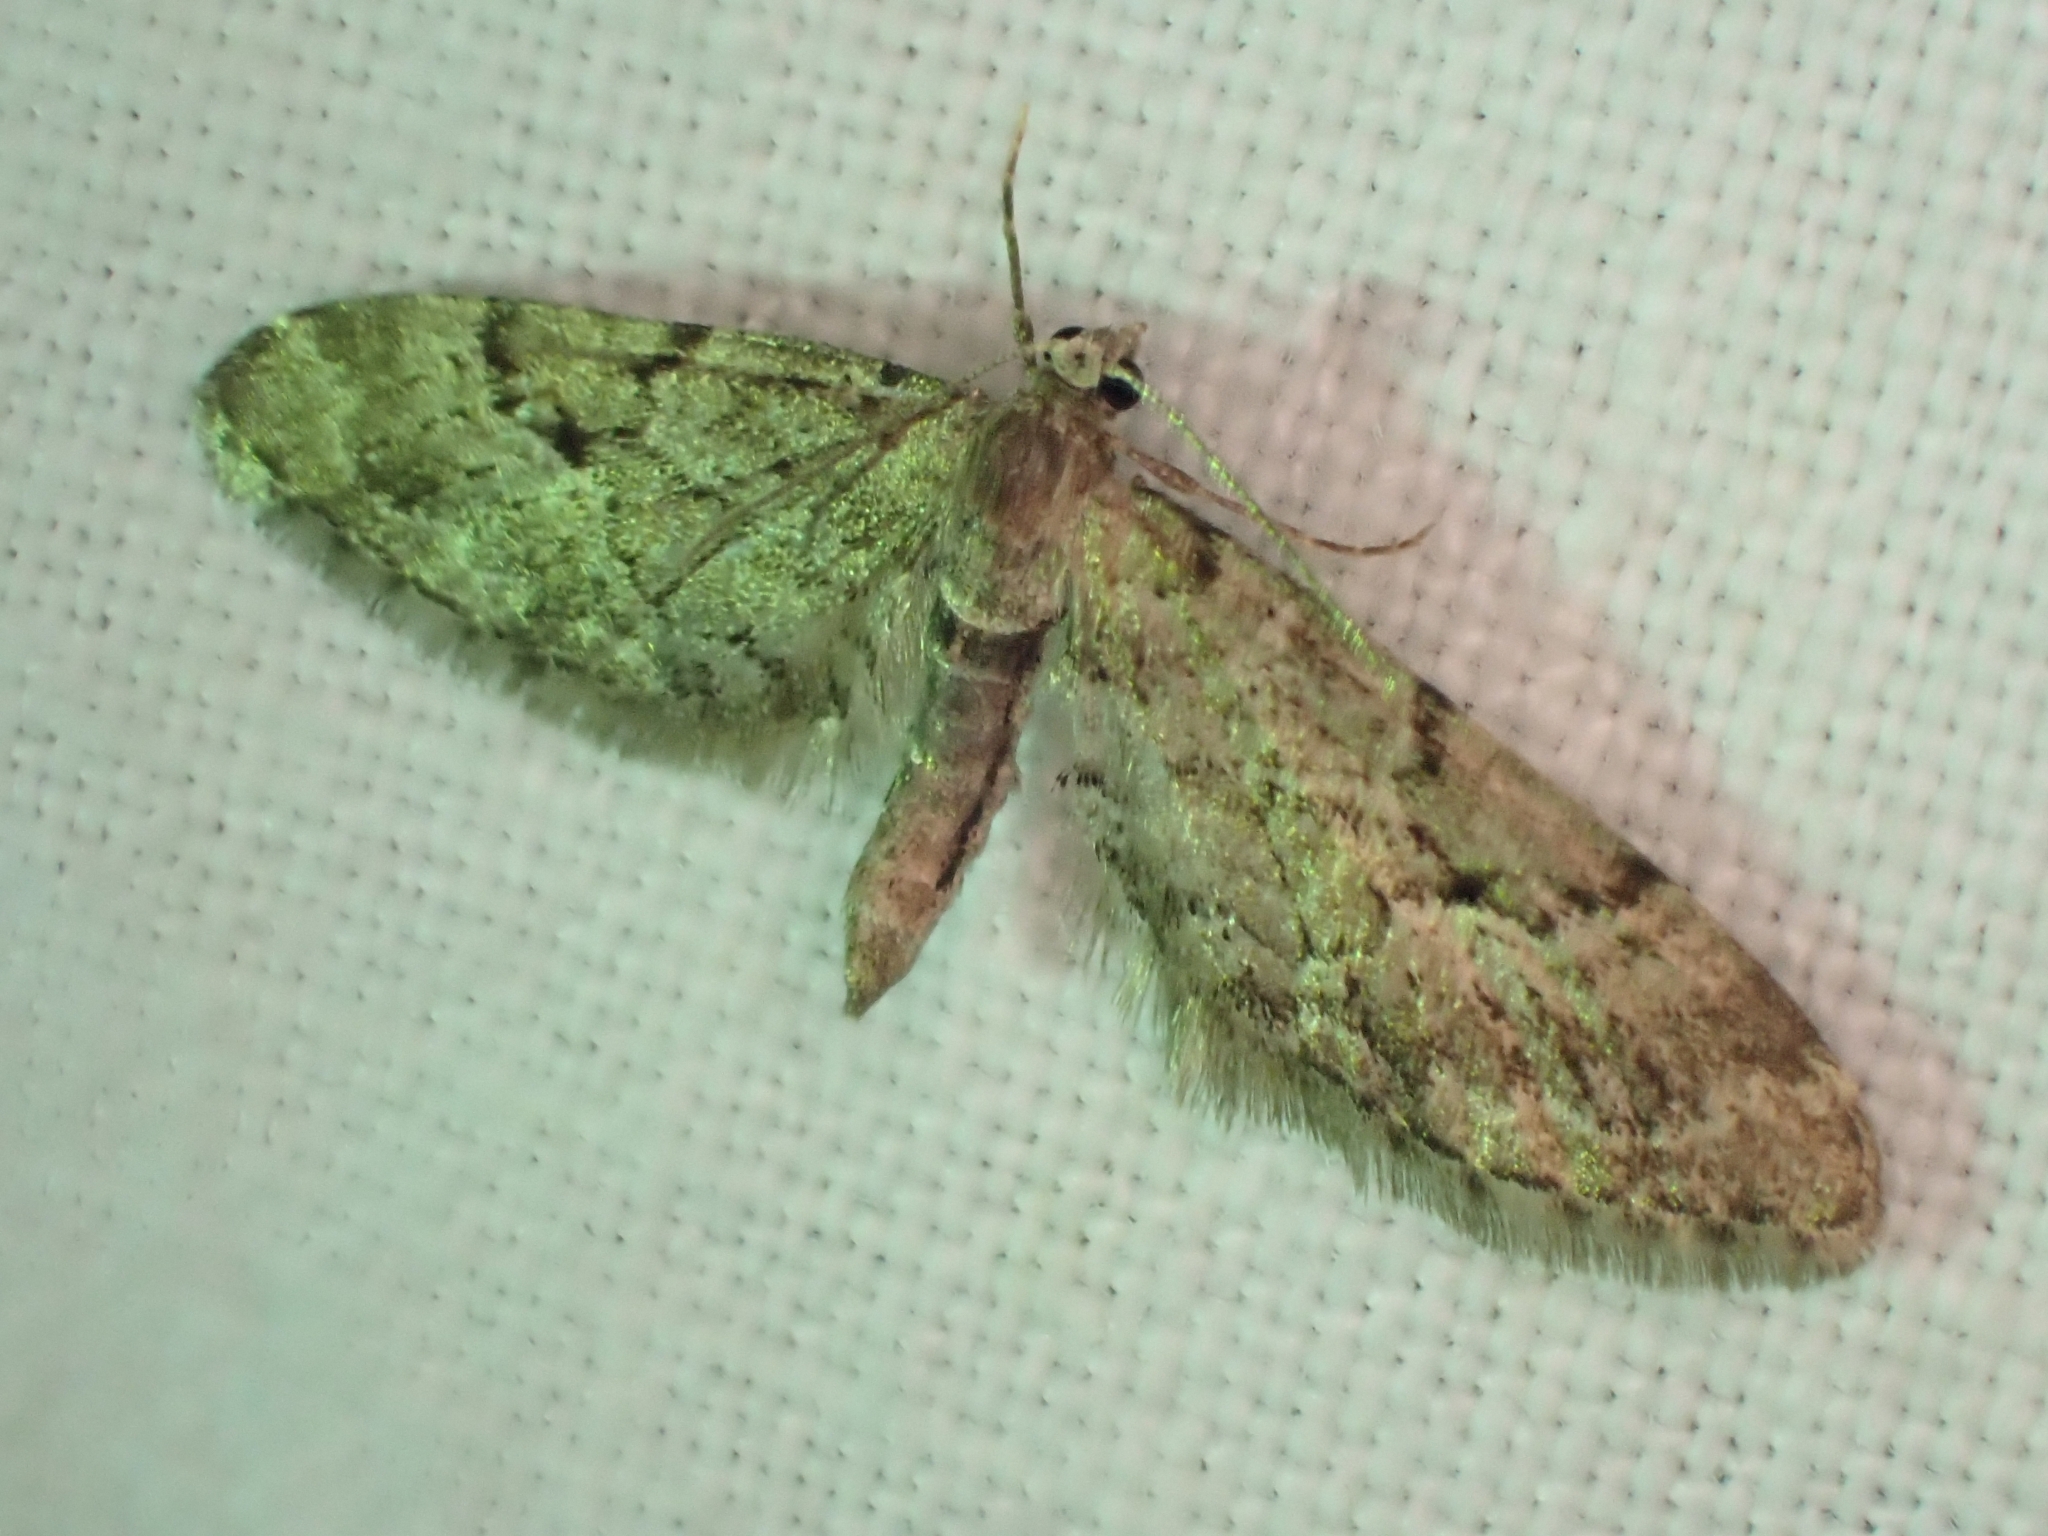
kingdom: Animalia
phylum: Arthropoda
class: Insecta
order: Lepidoptera
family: Geometridae
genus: Eupithecia
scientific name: Eupithecia lanceata
